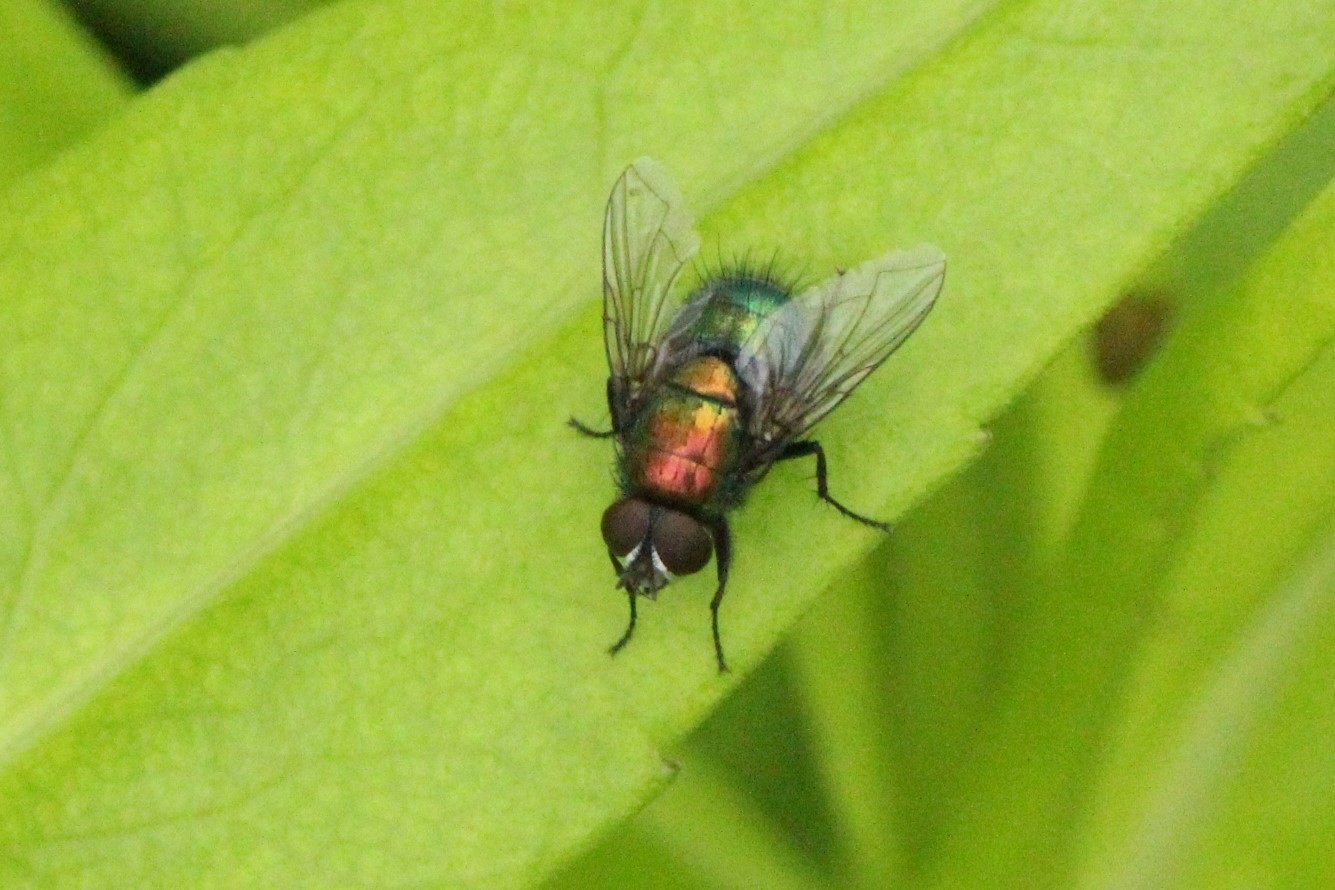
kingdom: Animalia
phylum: Arthropoda
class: Insecta
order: Diptera
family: Calliphoridae
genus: Lucilia
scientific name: Lucilia silvarum
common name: Marsh greenbottle
